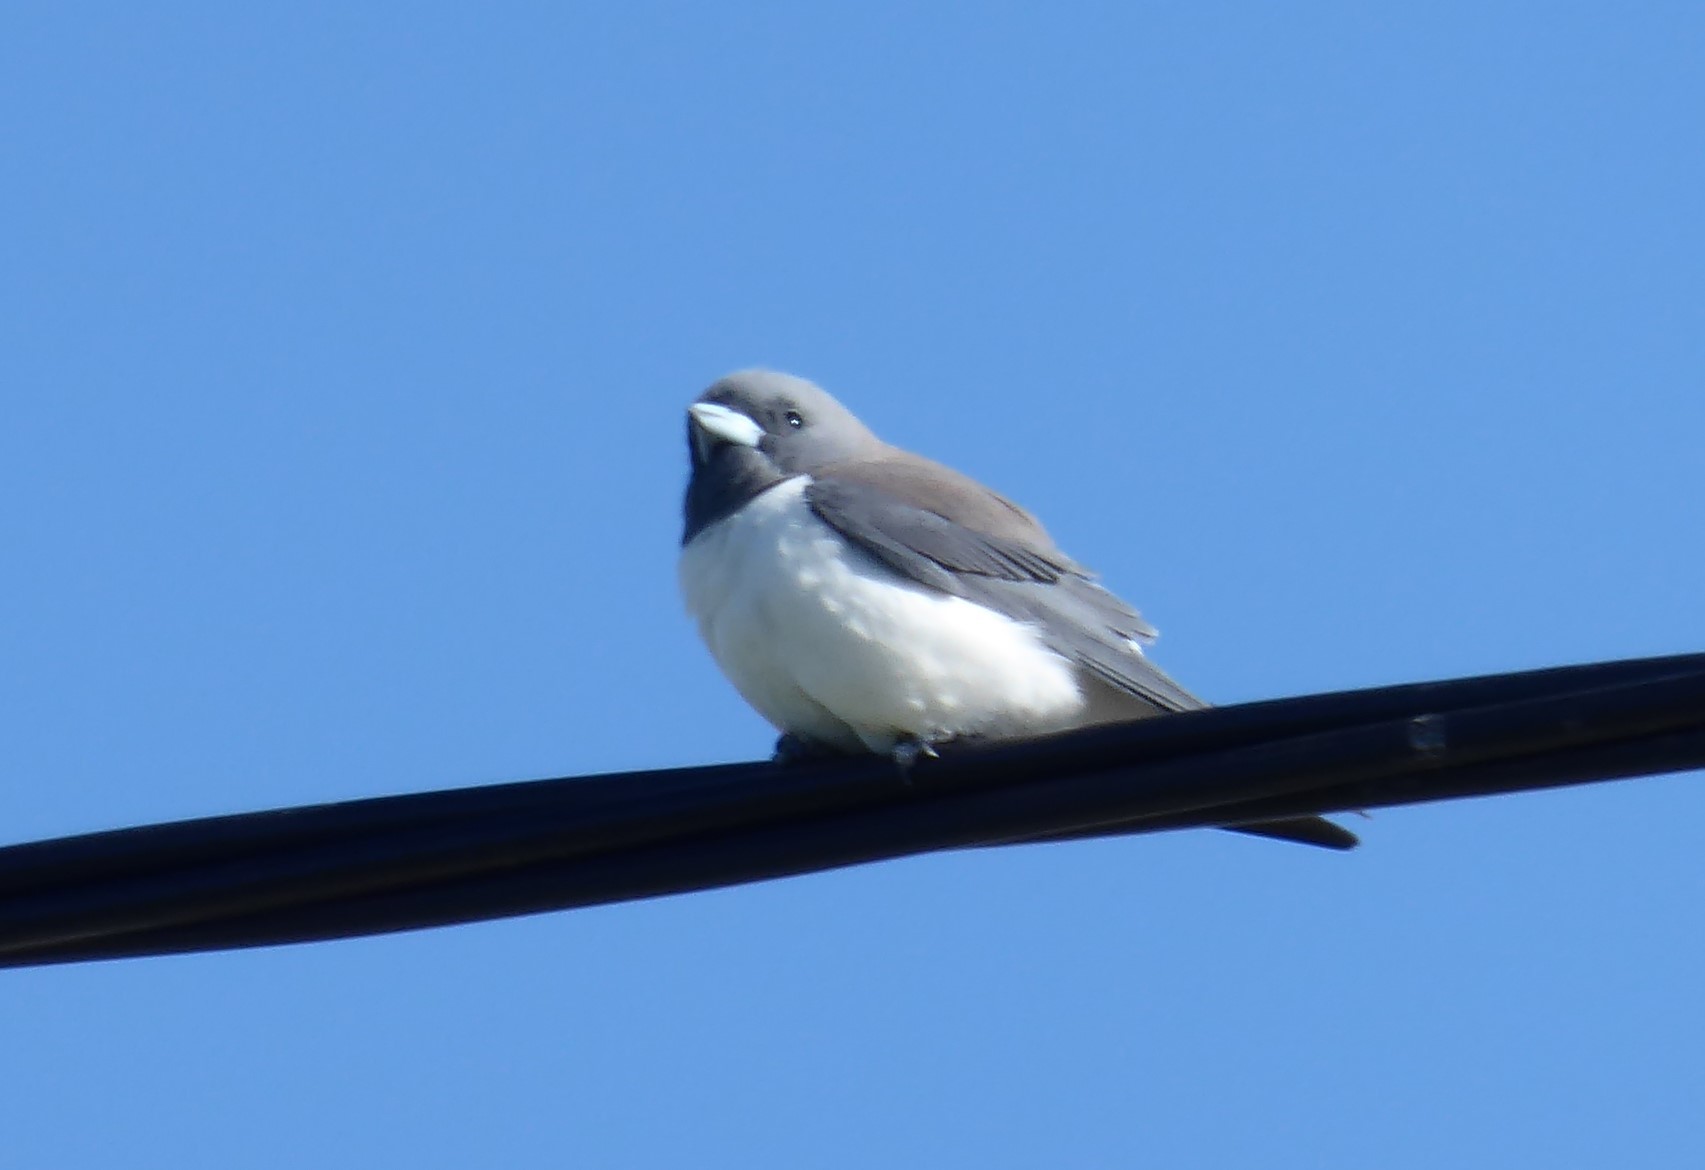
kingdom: Animalia
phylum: Chordata
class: Aves
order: Passeriformes
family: Artamidae
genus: Artamus
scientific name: Artamus leucoryn
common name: White-breasted woodswallow
